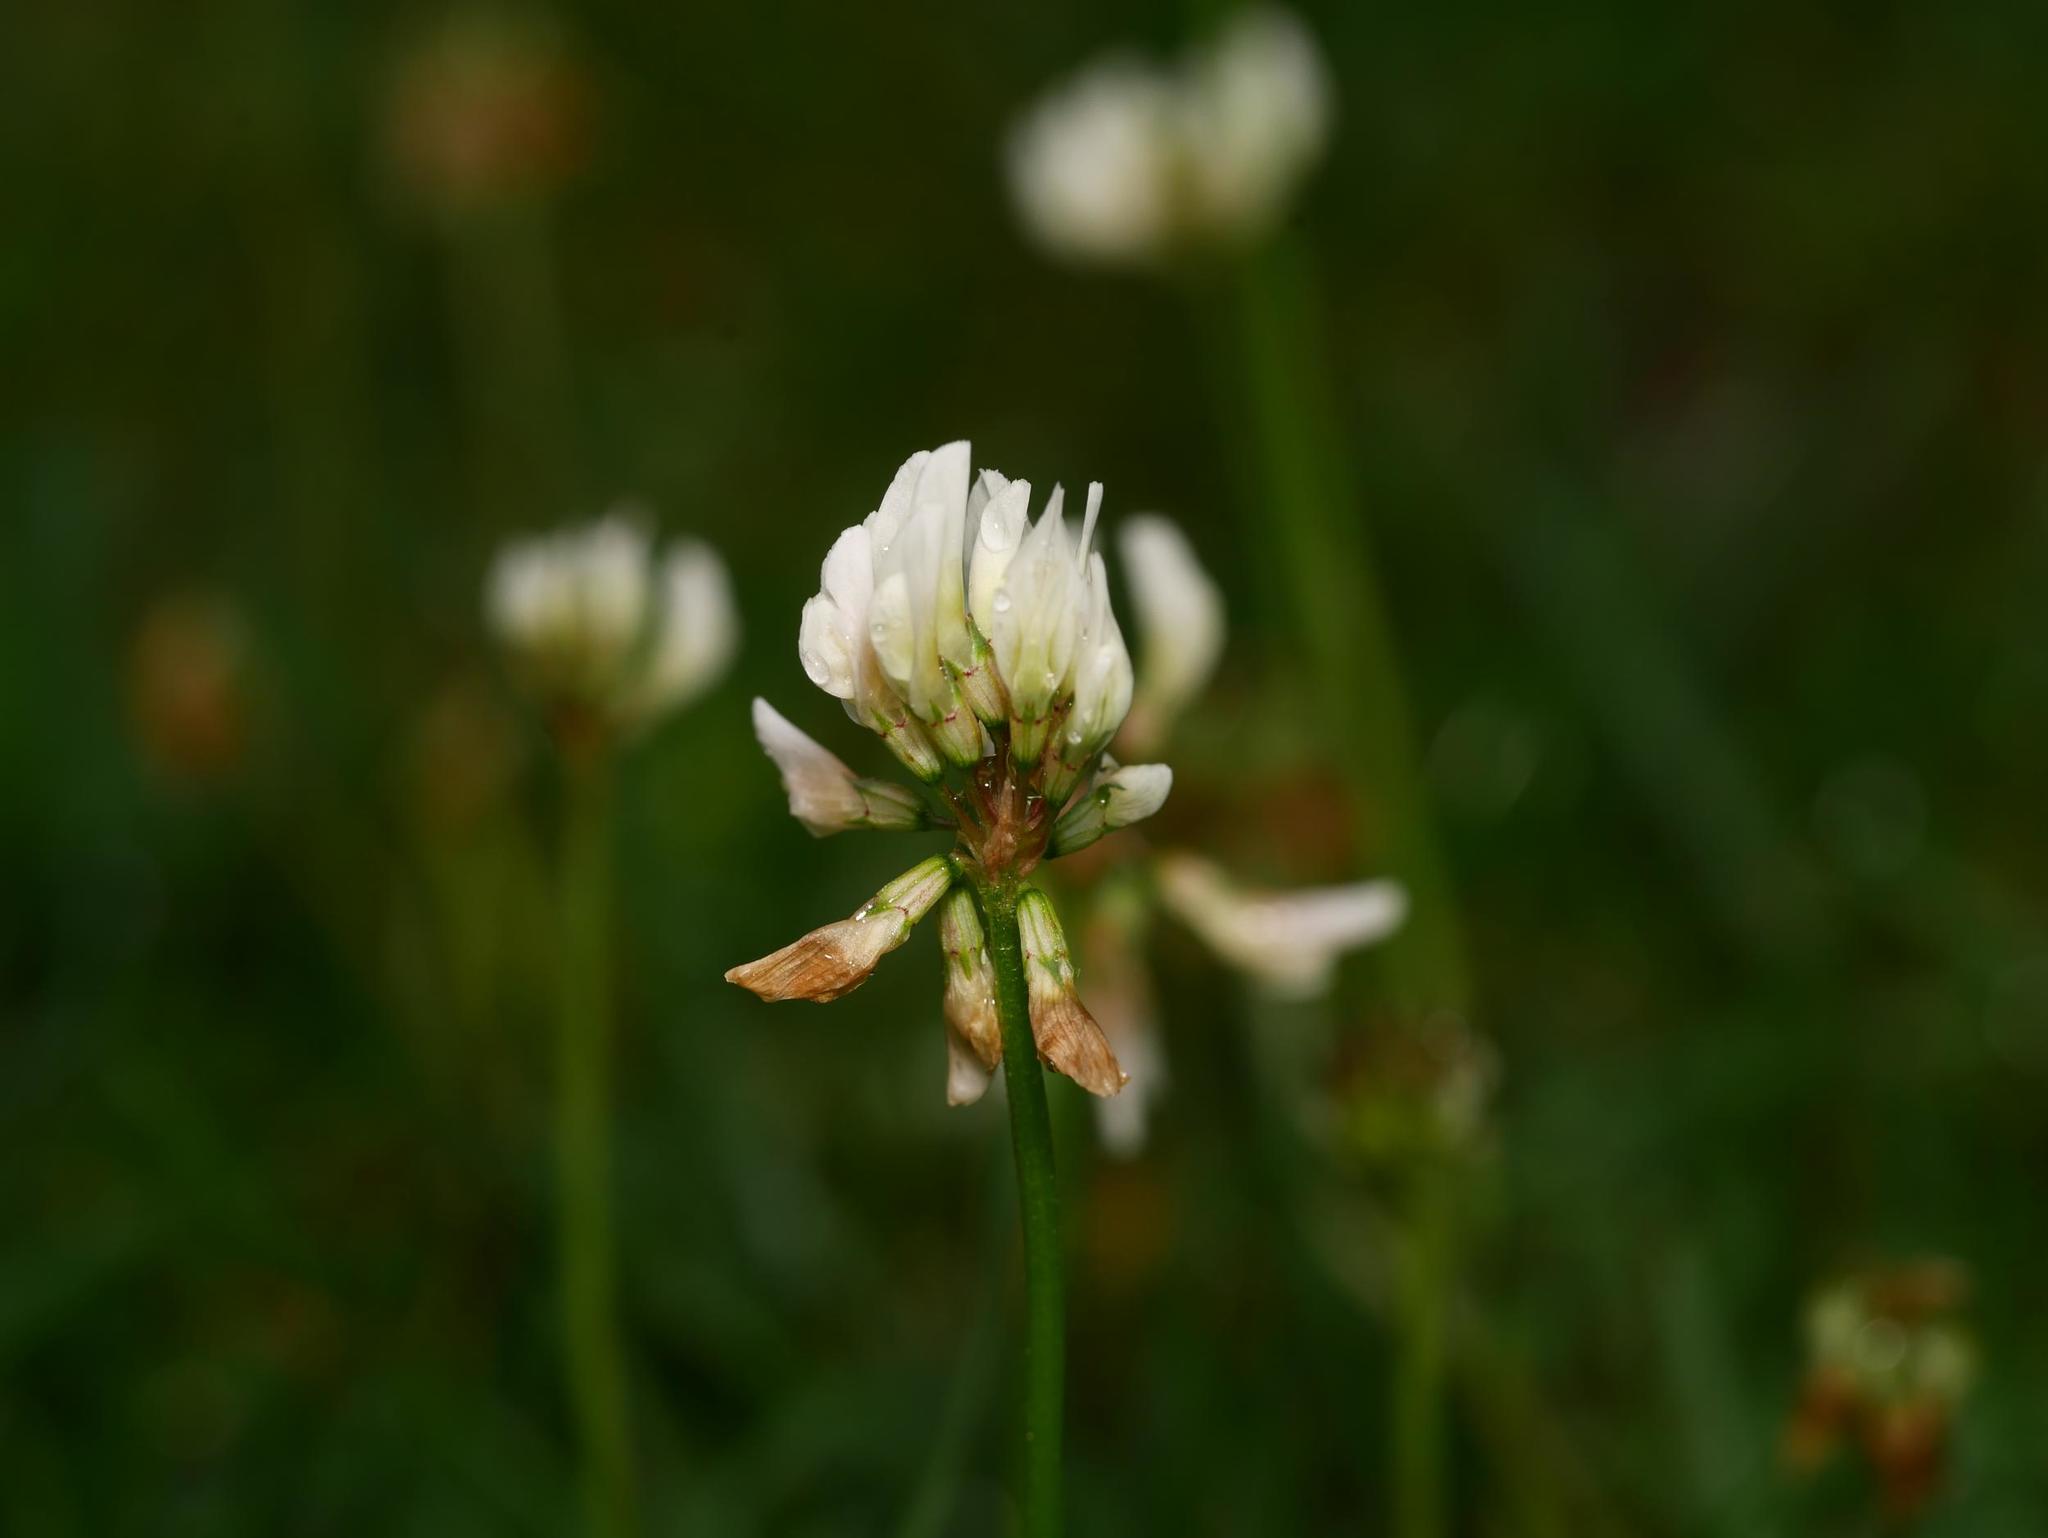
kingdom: Plantae
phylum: Tracheophyta
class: Magnoliopsida
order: Fabales
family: Fabaceae
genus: Trifolium
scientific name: Trifolium repens
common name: White clover
